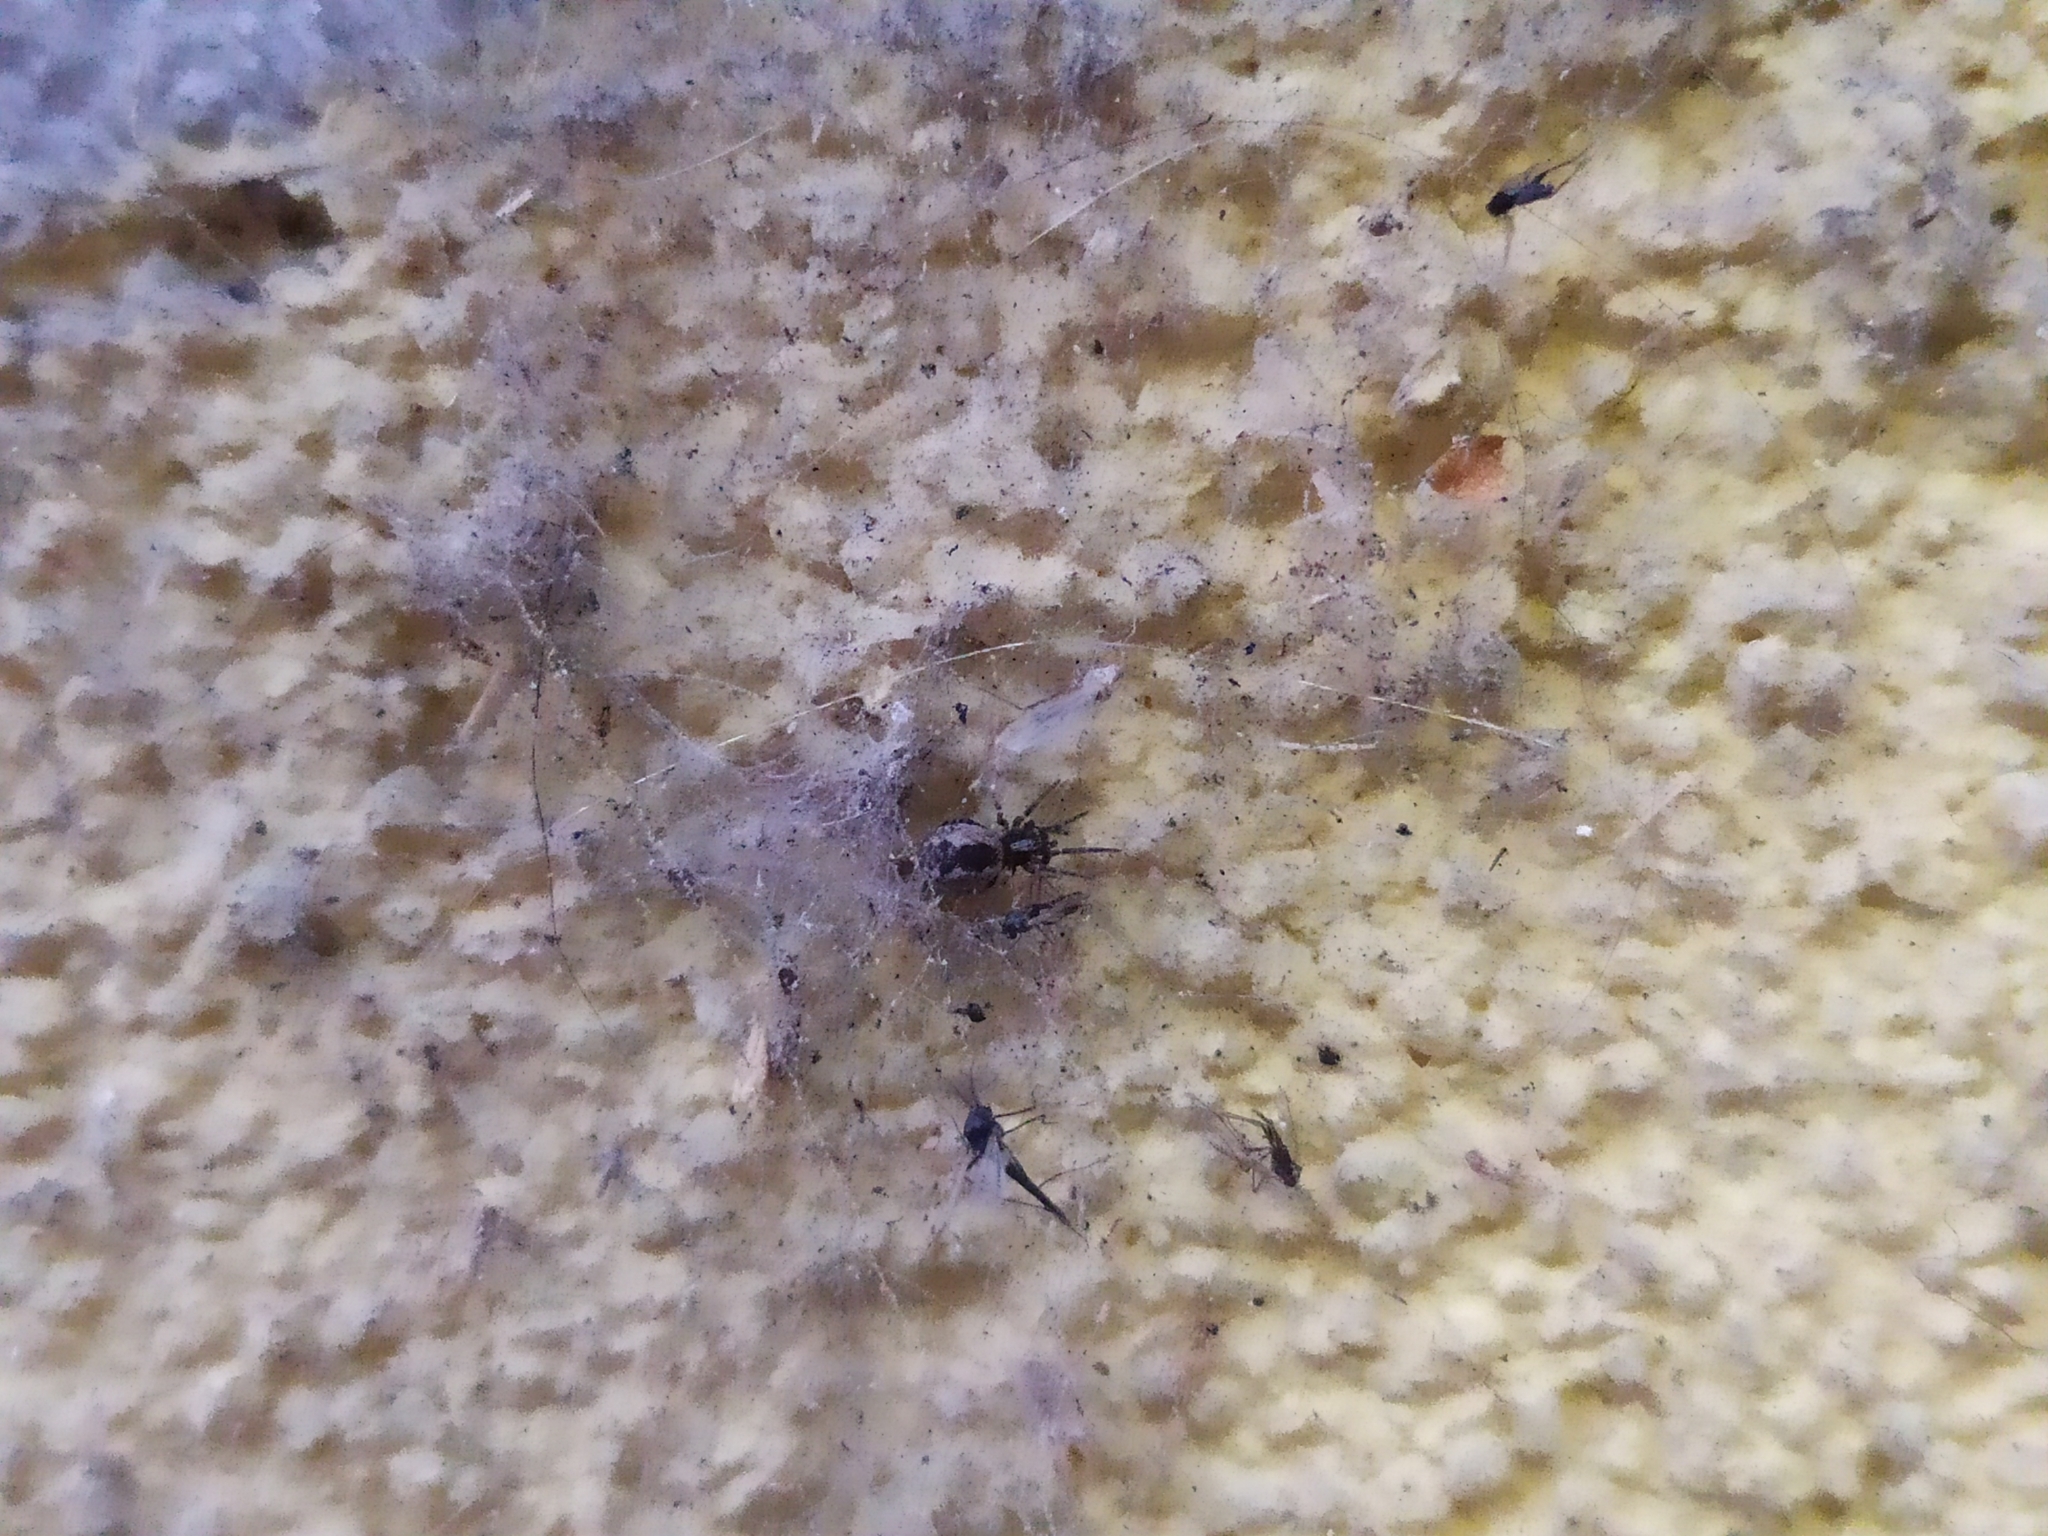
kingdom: Animalia
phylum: Arthropoda
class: Arachnida
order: Araneae
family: Dictynidae
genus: Brigittea
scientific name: Brigittea civica
